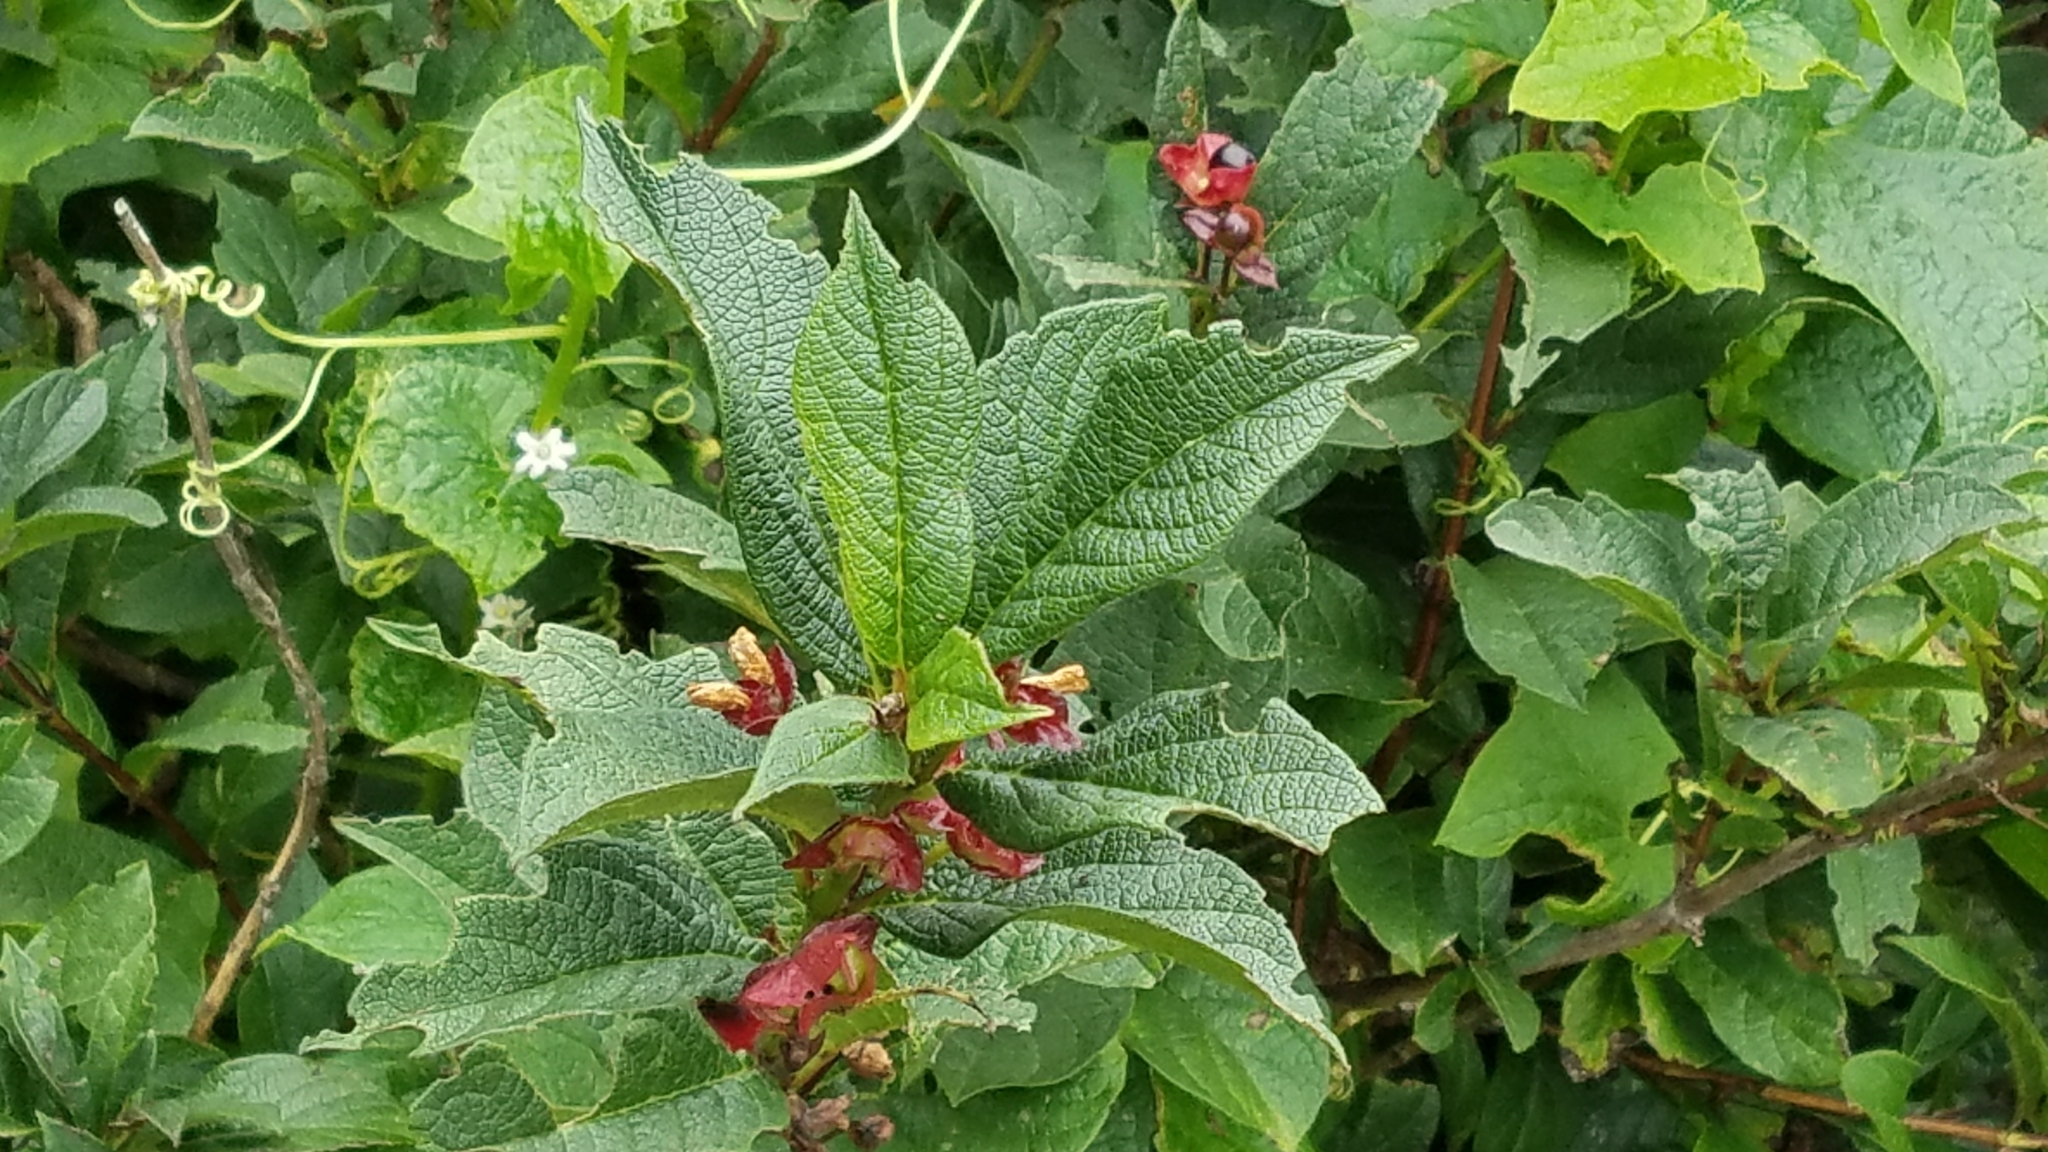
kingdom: Plantae
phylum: Tracheophyta
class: Magnoliopsida
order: Dipsacales
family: Caprifoliaceae
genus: Lonicera
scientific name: Lonicera involucrata
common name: Californian honeysuckle
